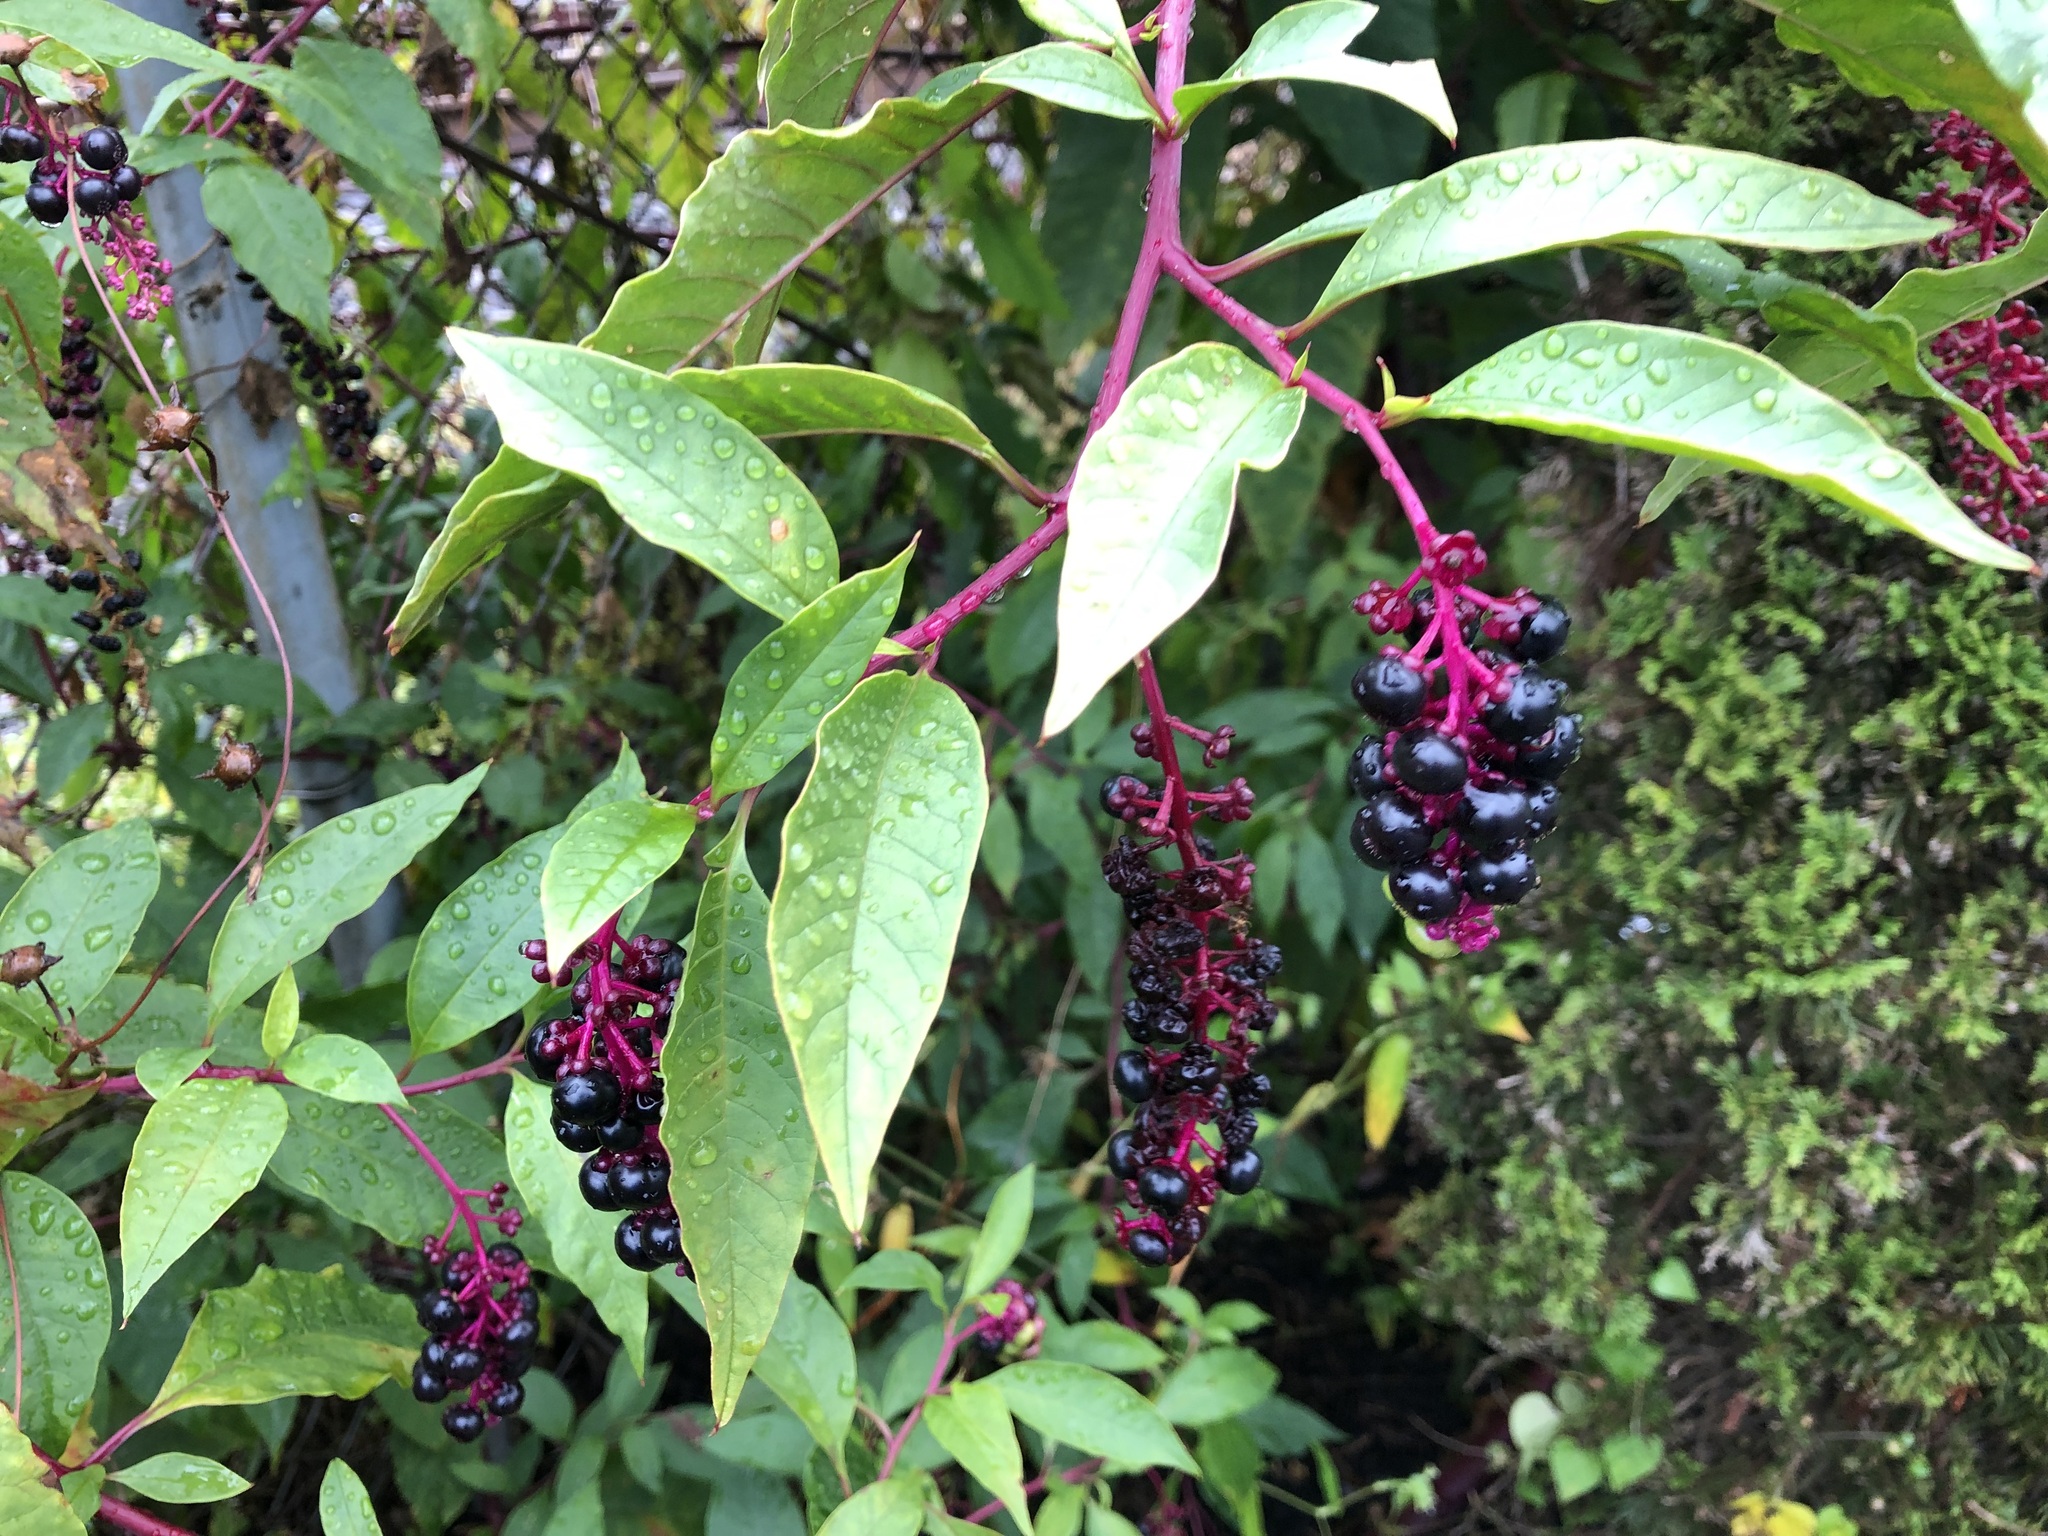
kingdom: Plantae
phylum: Tracheophyta
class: Magnoliopsida
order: Caryophyllales
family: Phytolaccaceae
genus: Phytolacca
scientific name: Phytolacca americana
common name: American pokeweed
